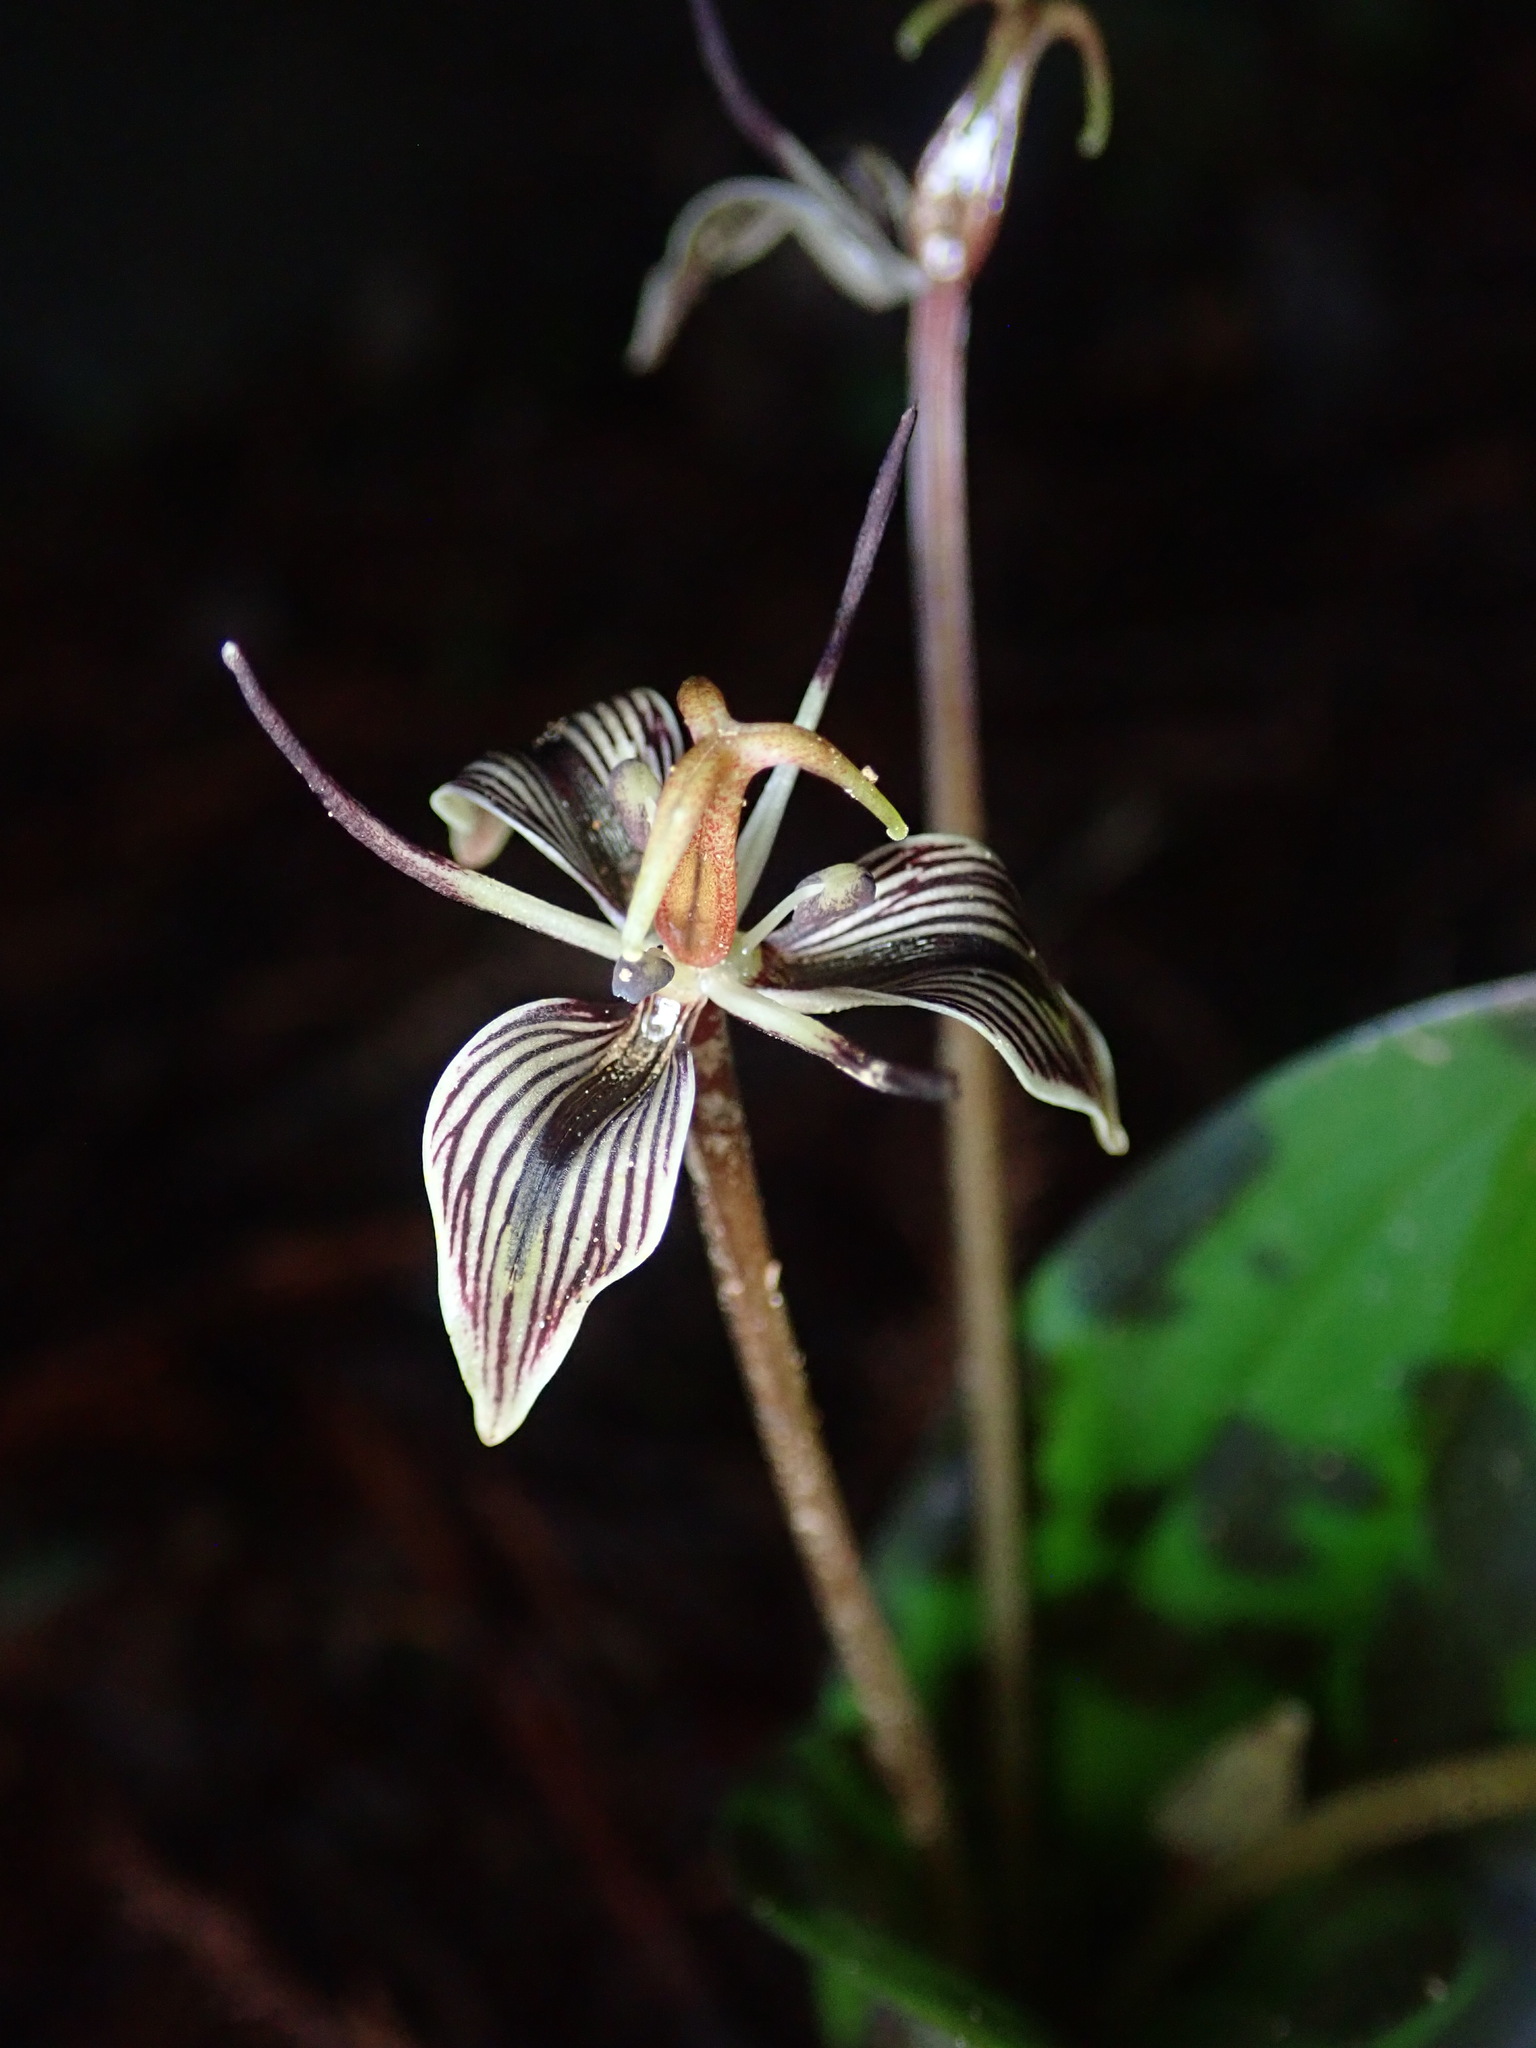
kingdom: Plantae
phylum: Tracheophyta
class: Liliopsida
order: Liliales
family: Liliaceae
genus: Scoliopus
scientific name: Scoliopus bigelovii
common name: Foetid adder's-tongue
